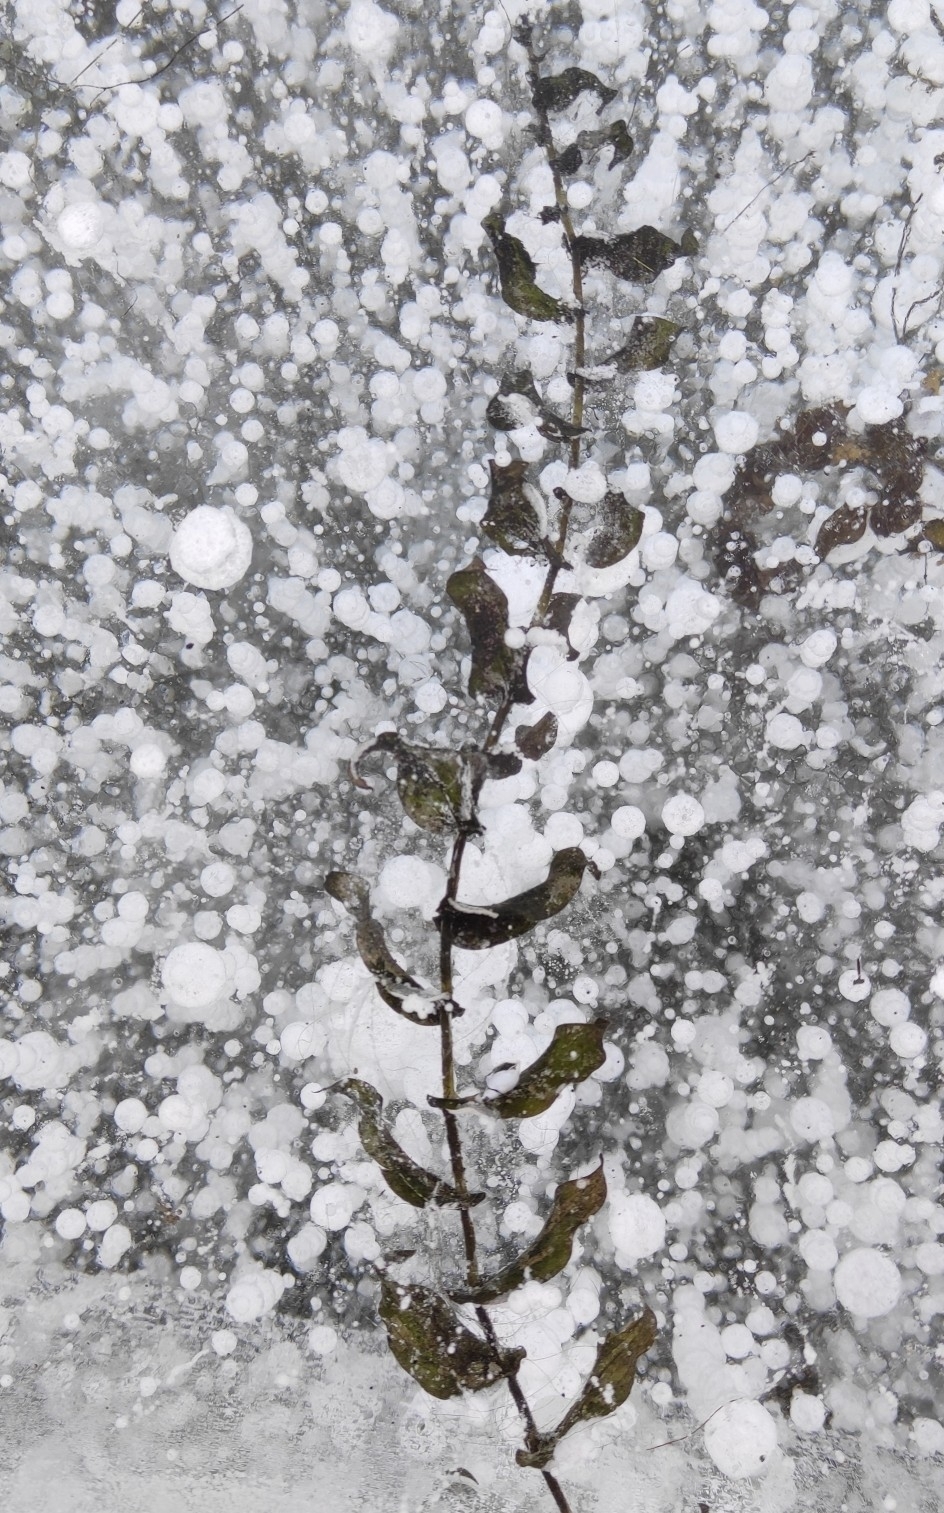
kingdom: Plantae
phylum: Tracheophyta
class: Liliopsida
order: Alismatales
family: Potamogetonaceae
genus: Potamogeton
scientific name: Potamogeton perfoliatus
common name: Perfoliate pondweed
